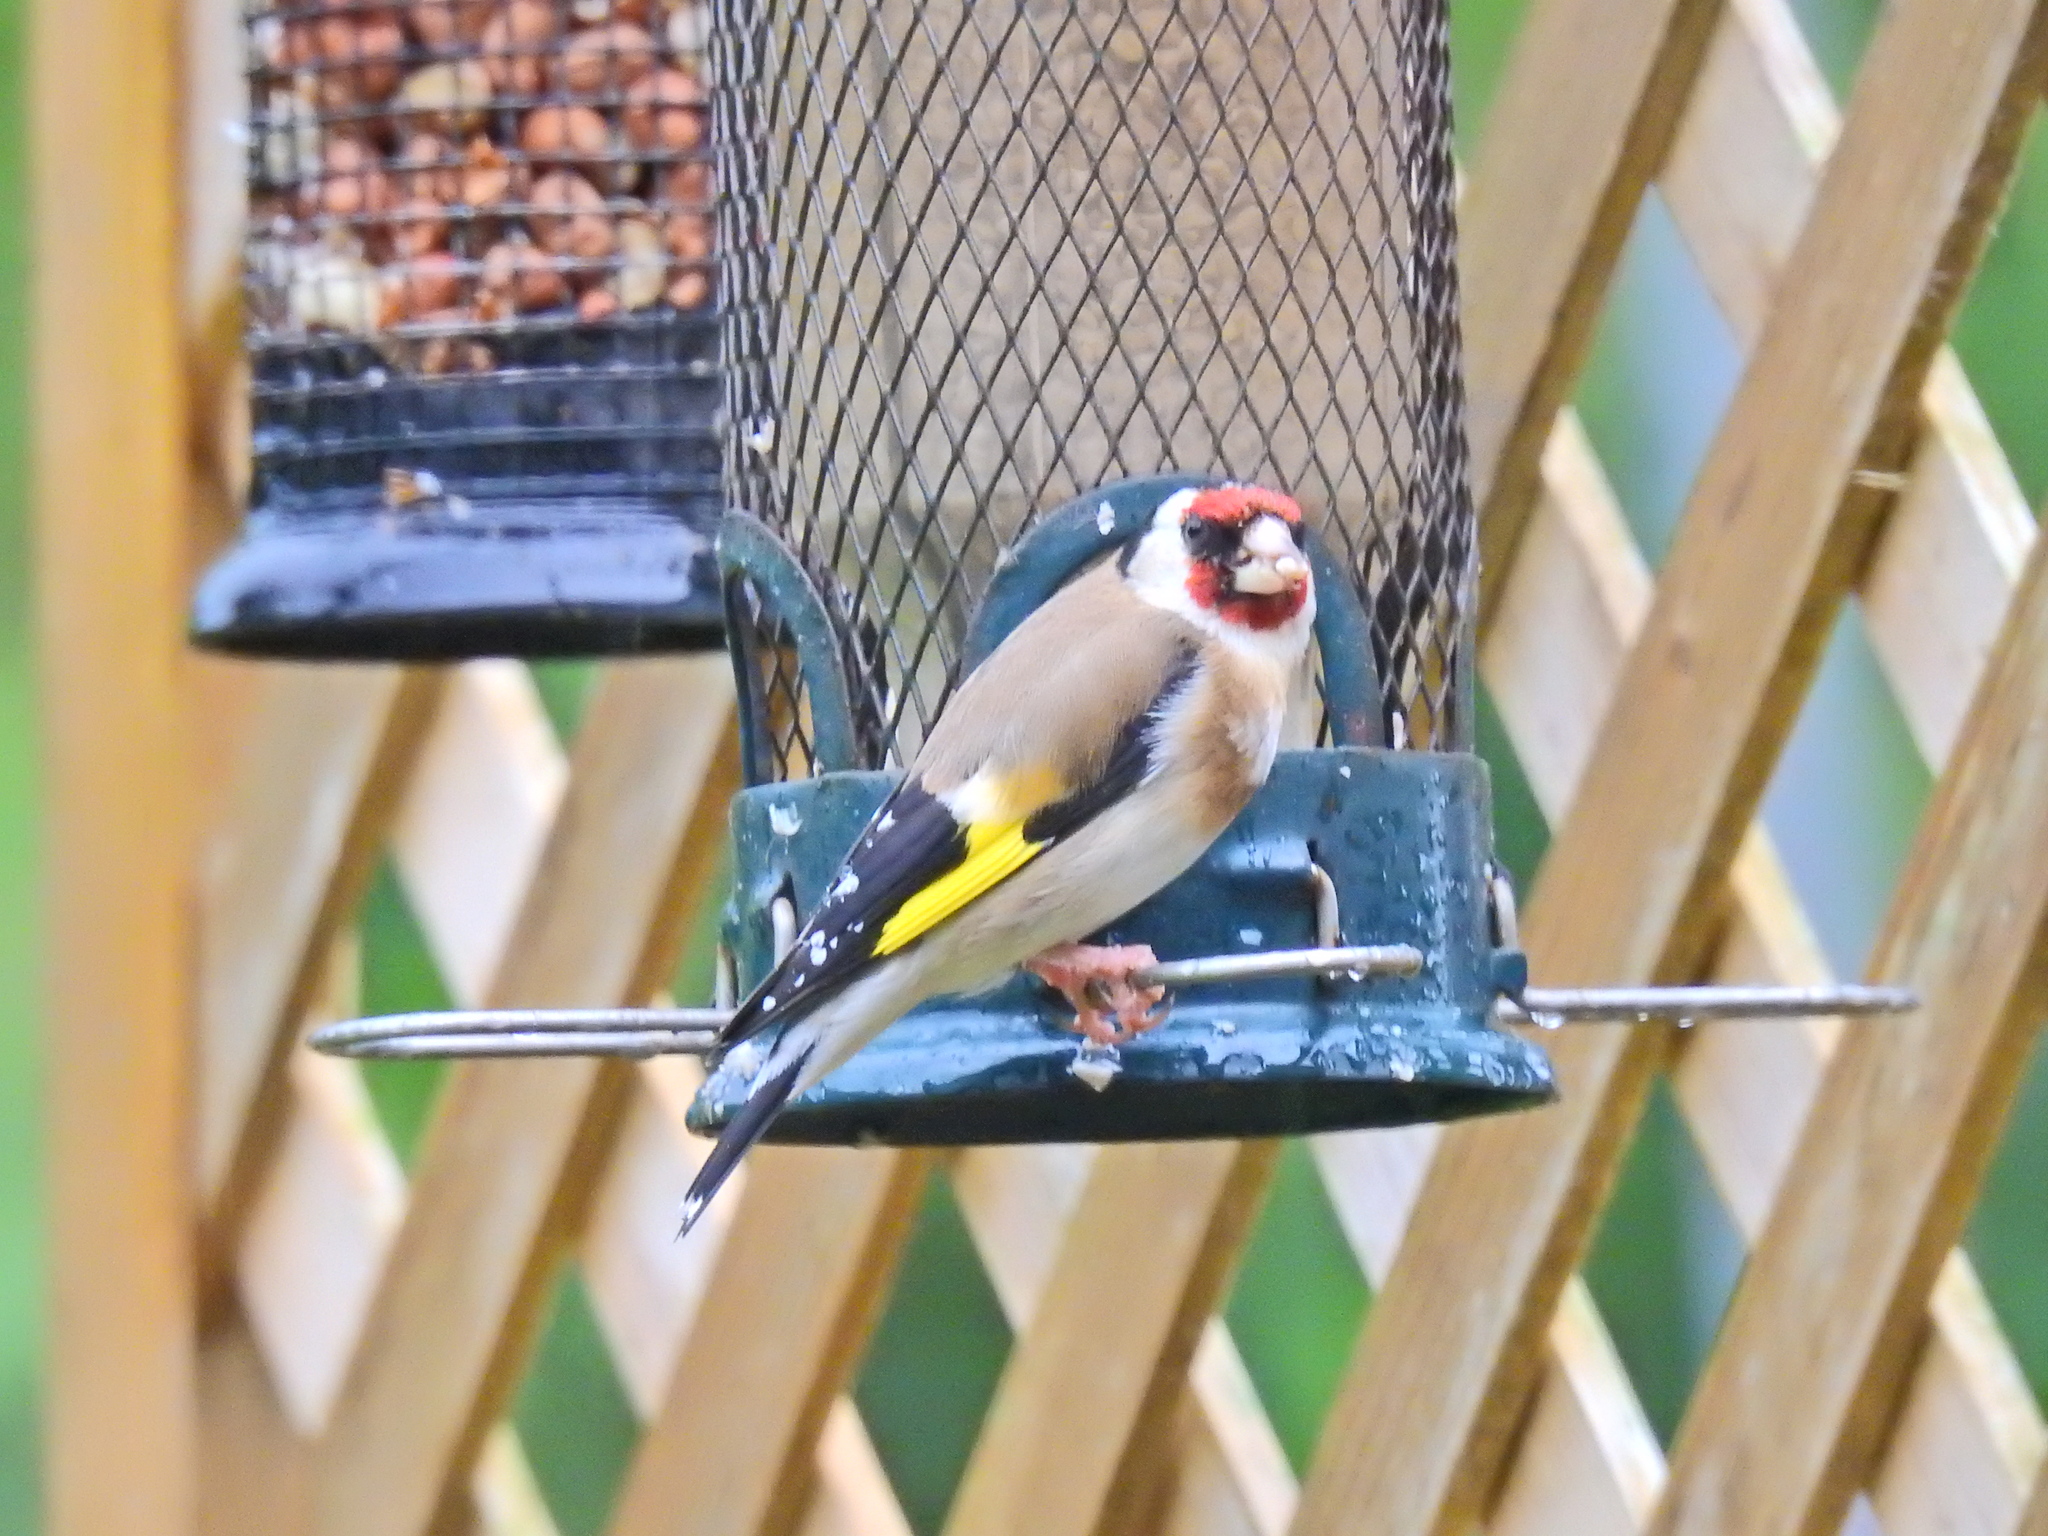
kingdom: Animalia
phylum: Chordata
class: Aves
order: Passeriformes
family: Fringillidae
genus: Carduelis
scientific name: Carduelis carduelis
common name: European goldfinch
